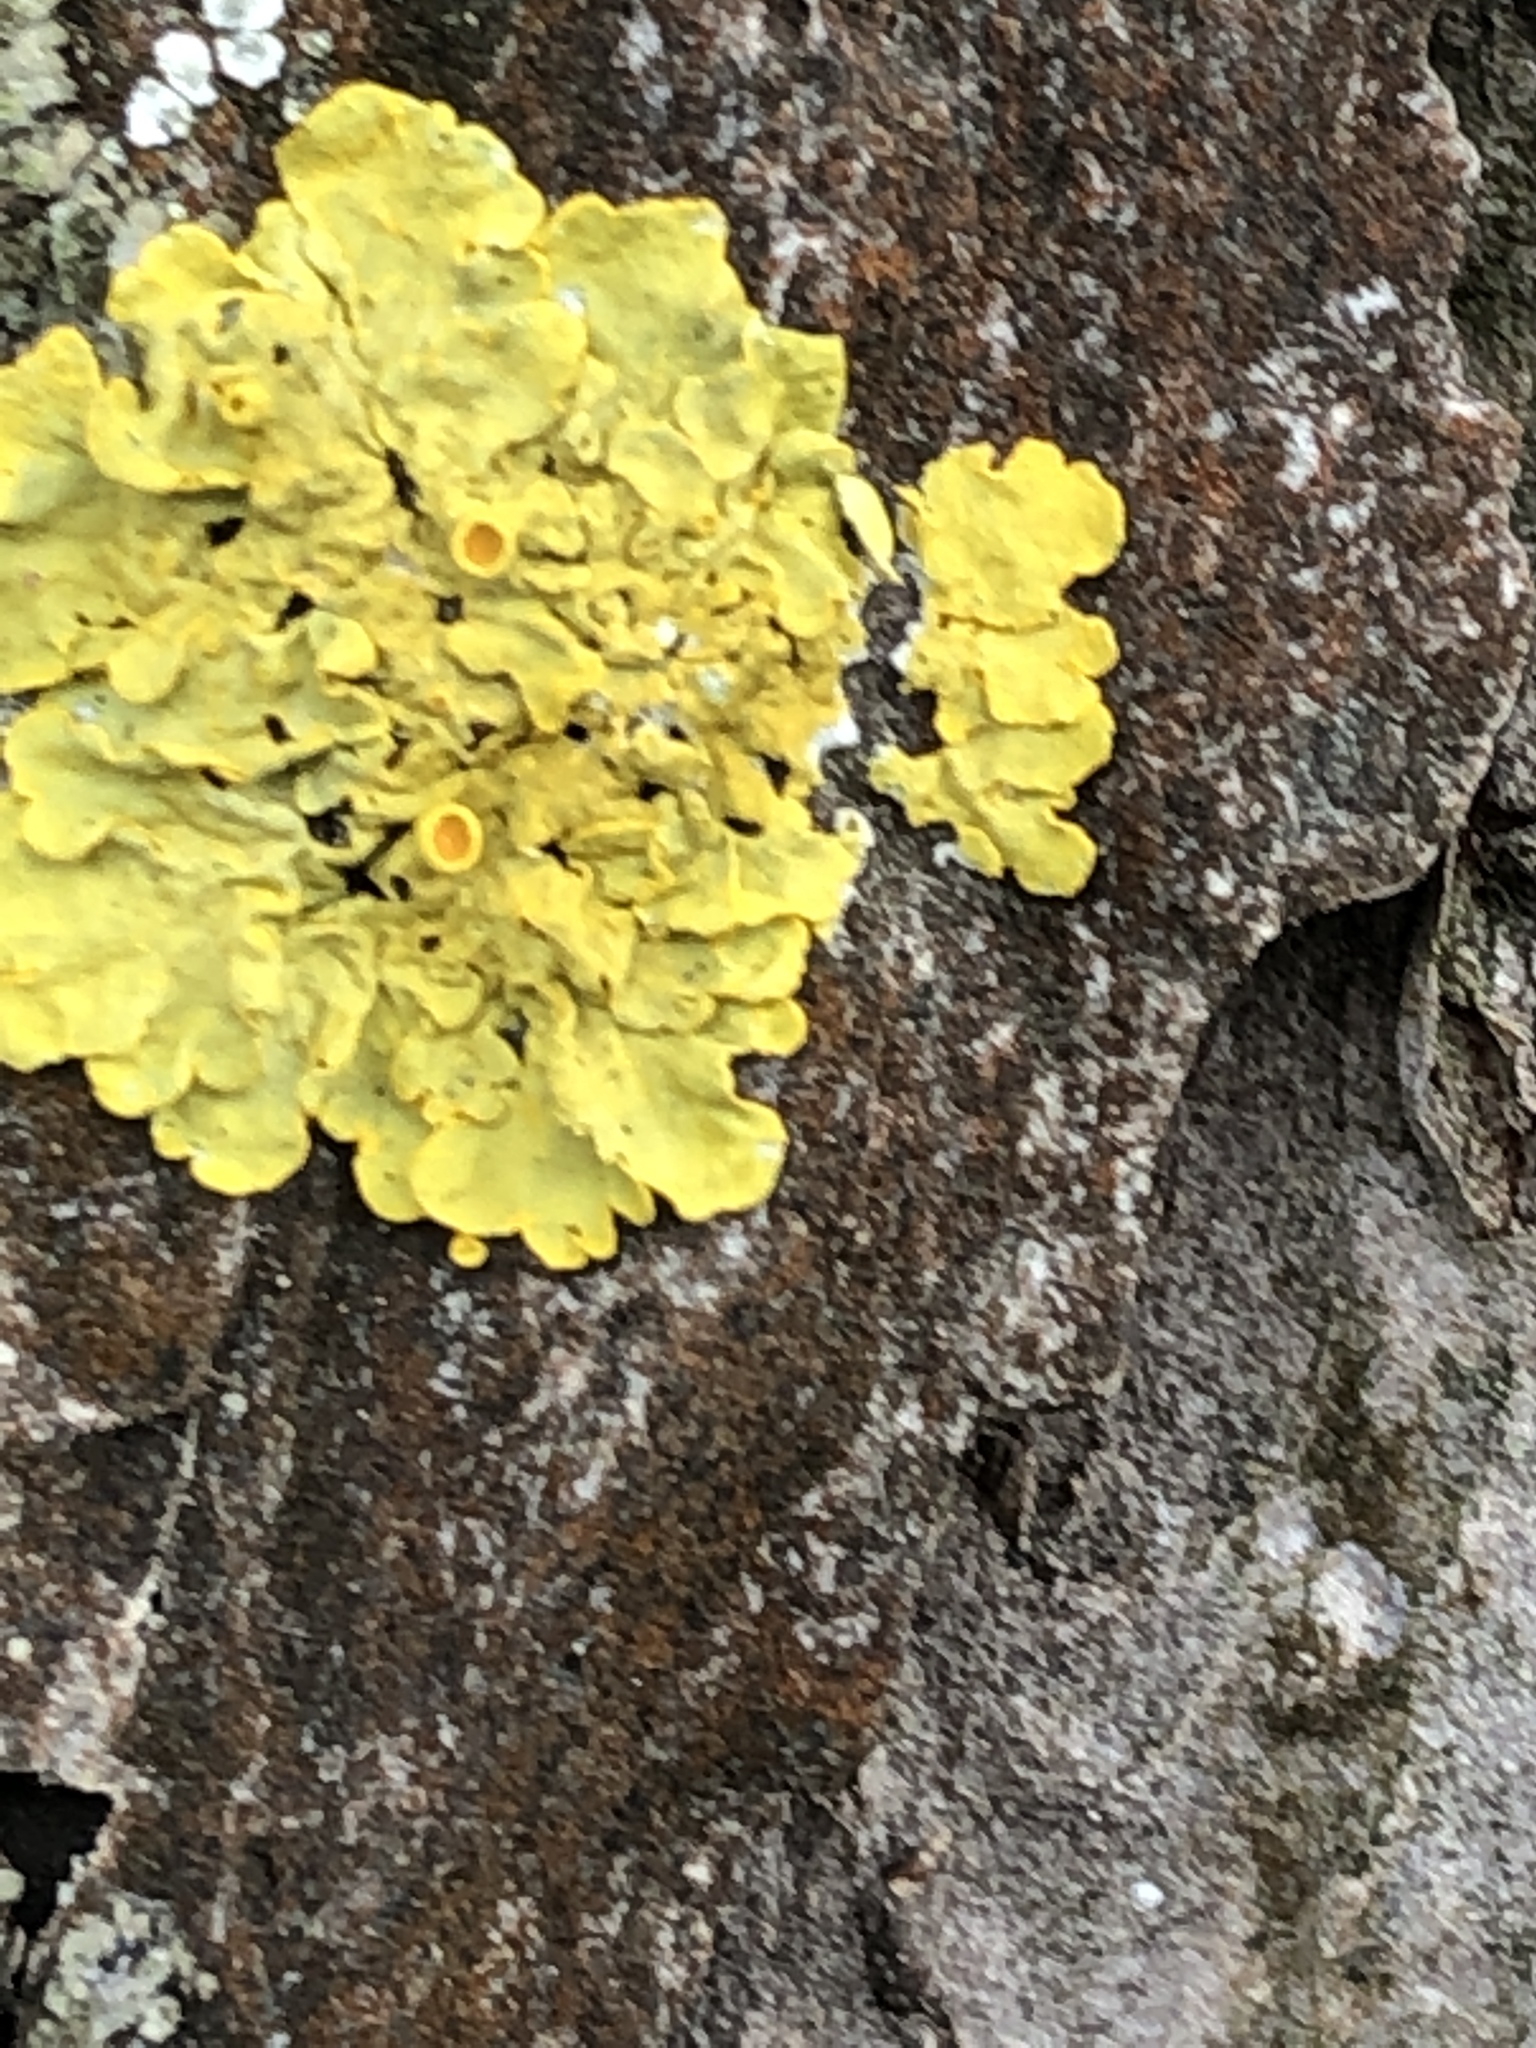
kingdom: Fungi
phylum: Ascomycota
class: Lecanoromycetes
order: Teloschistales
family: Teloschistaceae
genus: Xanthoria
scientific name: Xanthoria parietina
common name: Common orange lichen
